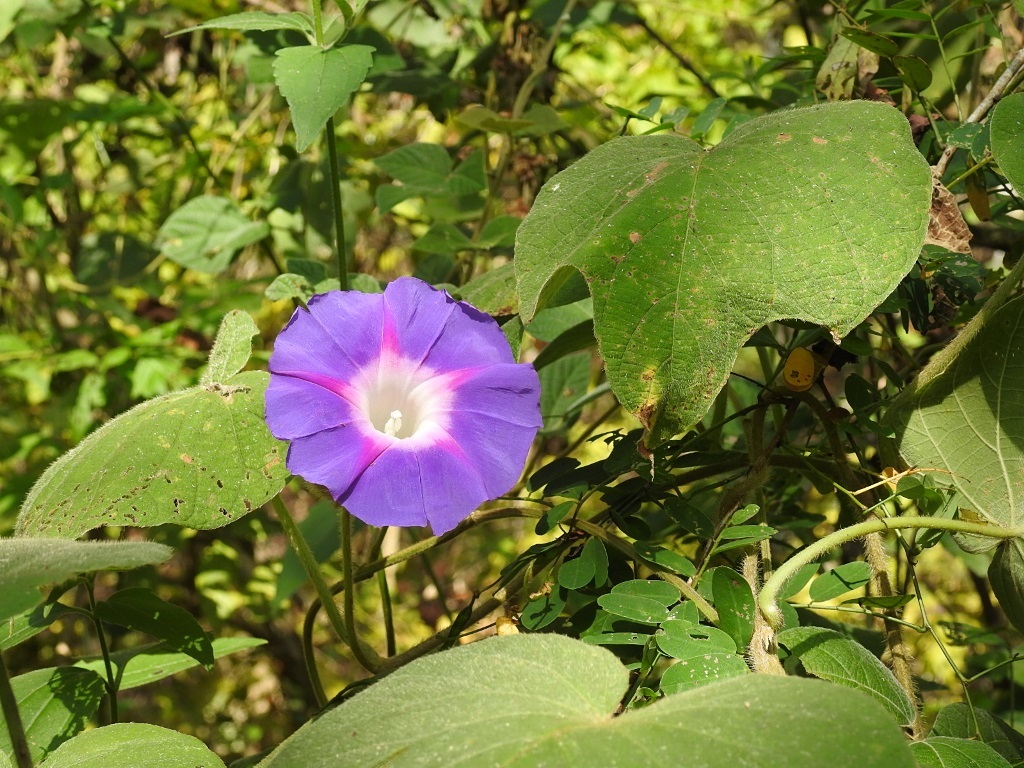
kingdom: Plantae
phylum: Tracheophyta
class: Magnoliopsida
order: Solanales
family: Convolvulaceae
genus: Ipomoea
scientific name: Ipomoea villifera
